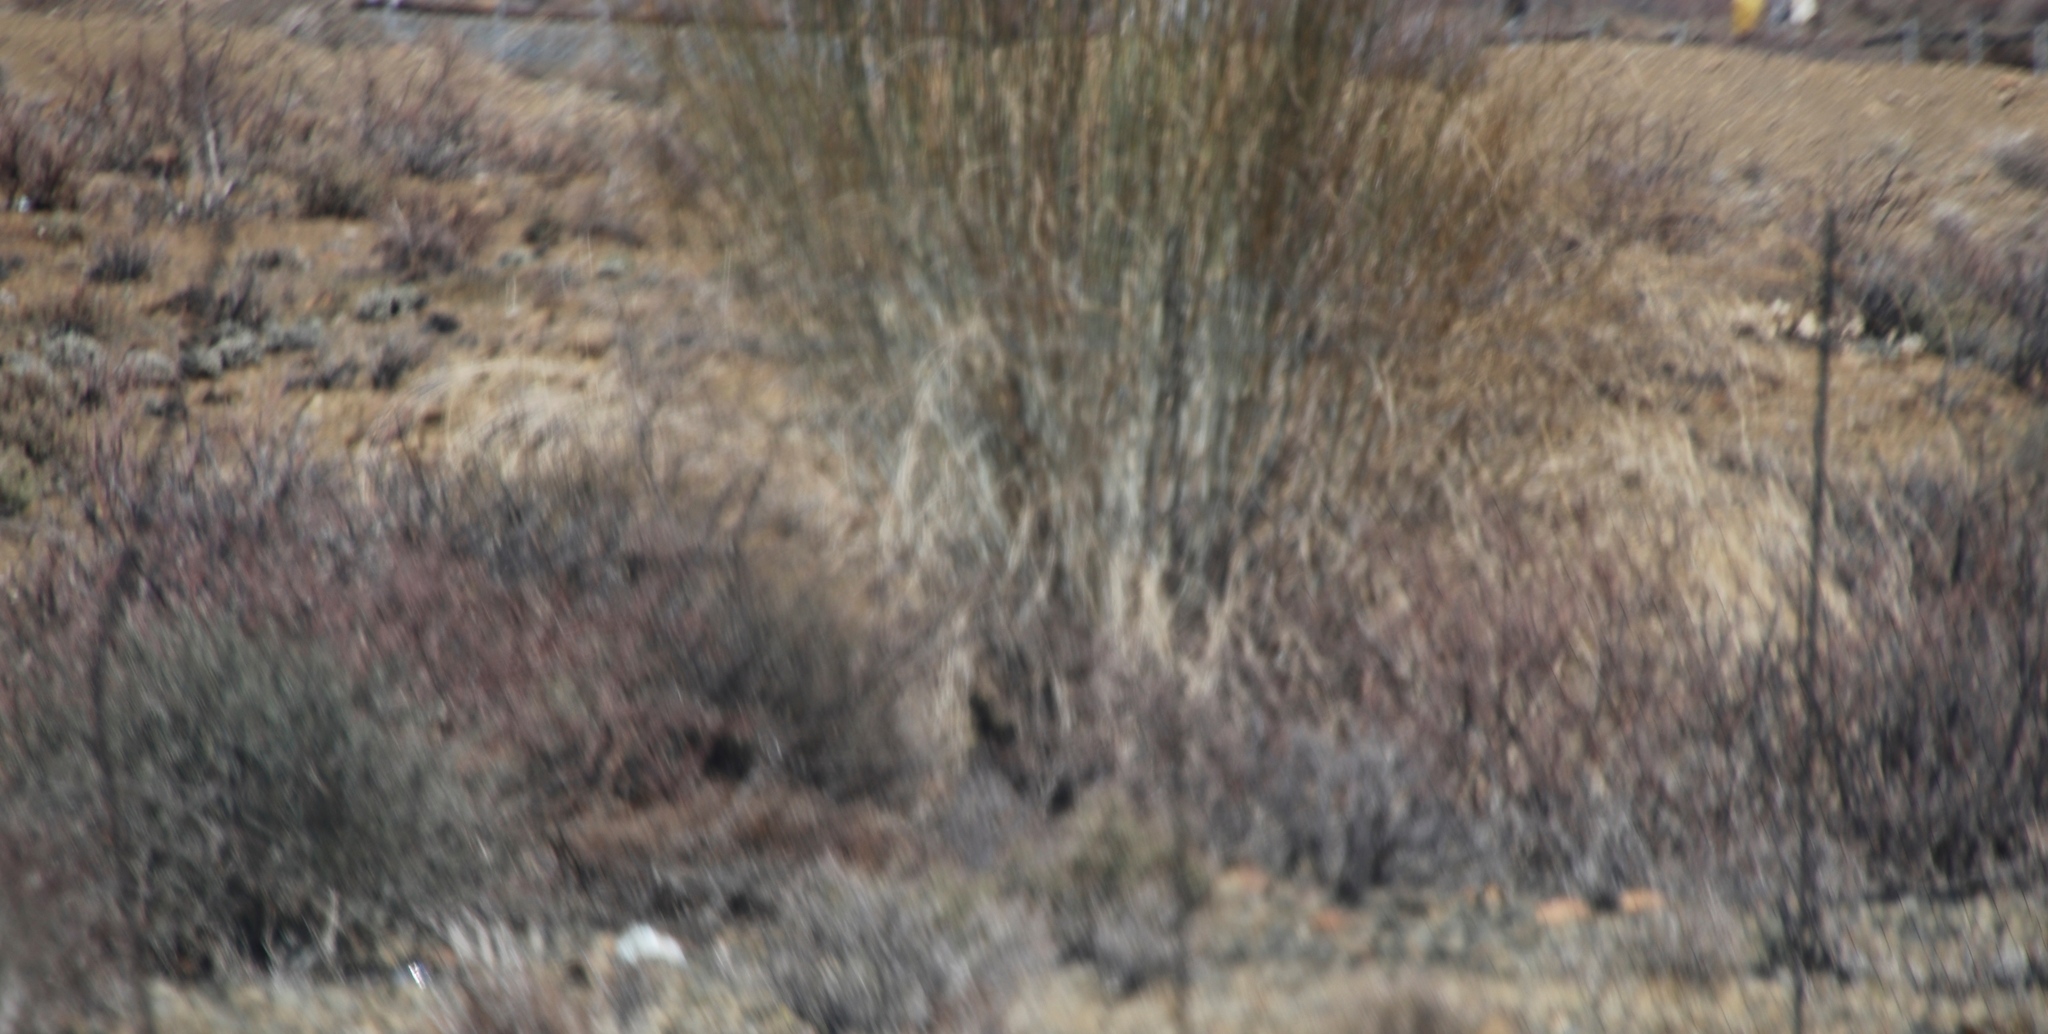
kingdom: Plantae
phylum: Tracheophyta
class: Magnoliopsida
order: Gentianales
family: Apocynaceae
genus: Gomphocarpus
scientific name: Gomphocarpus filiformis
